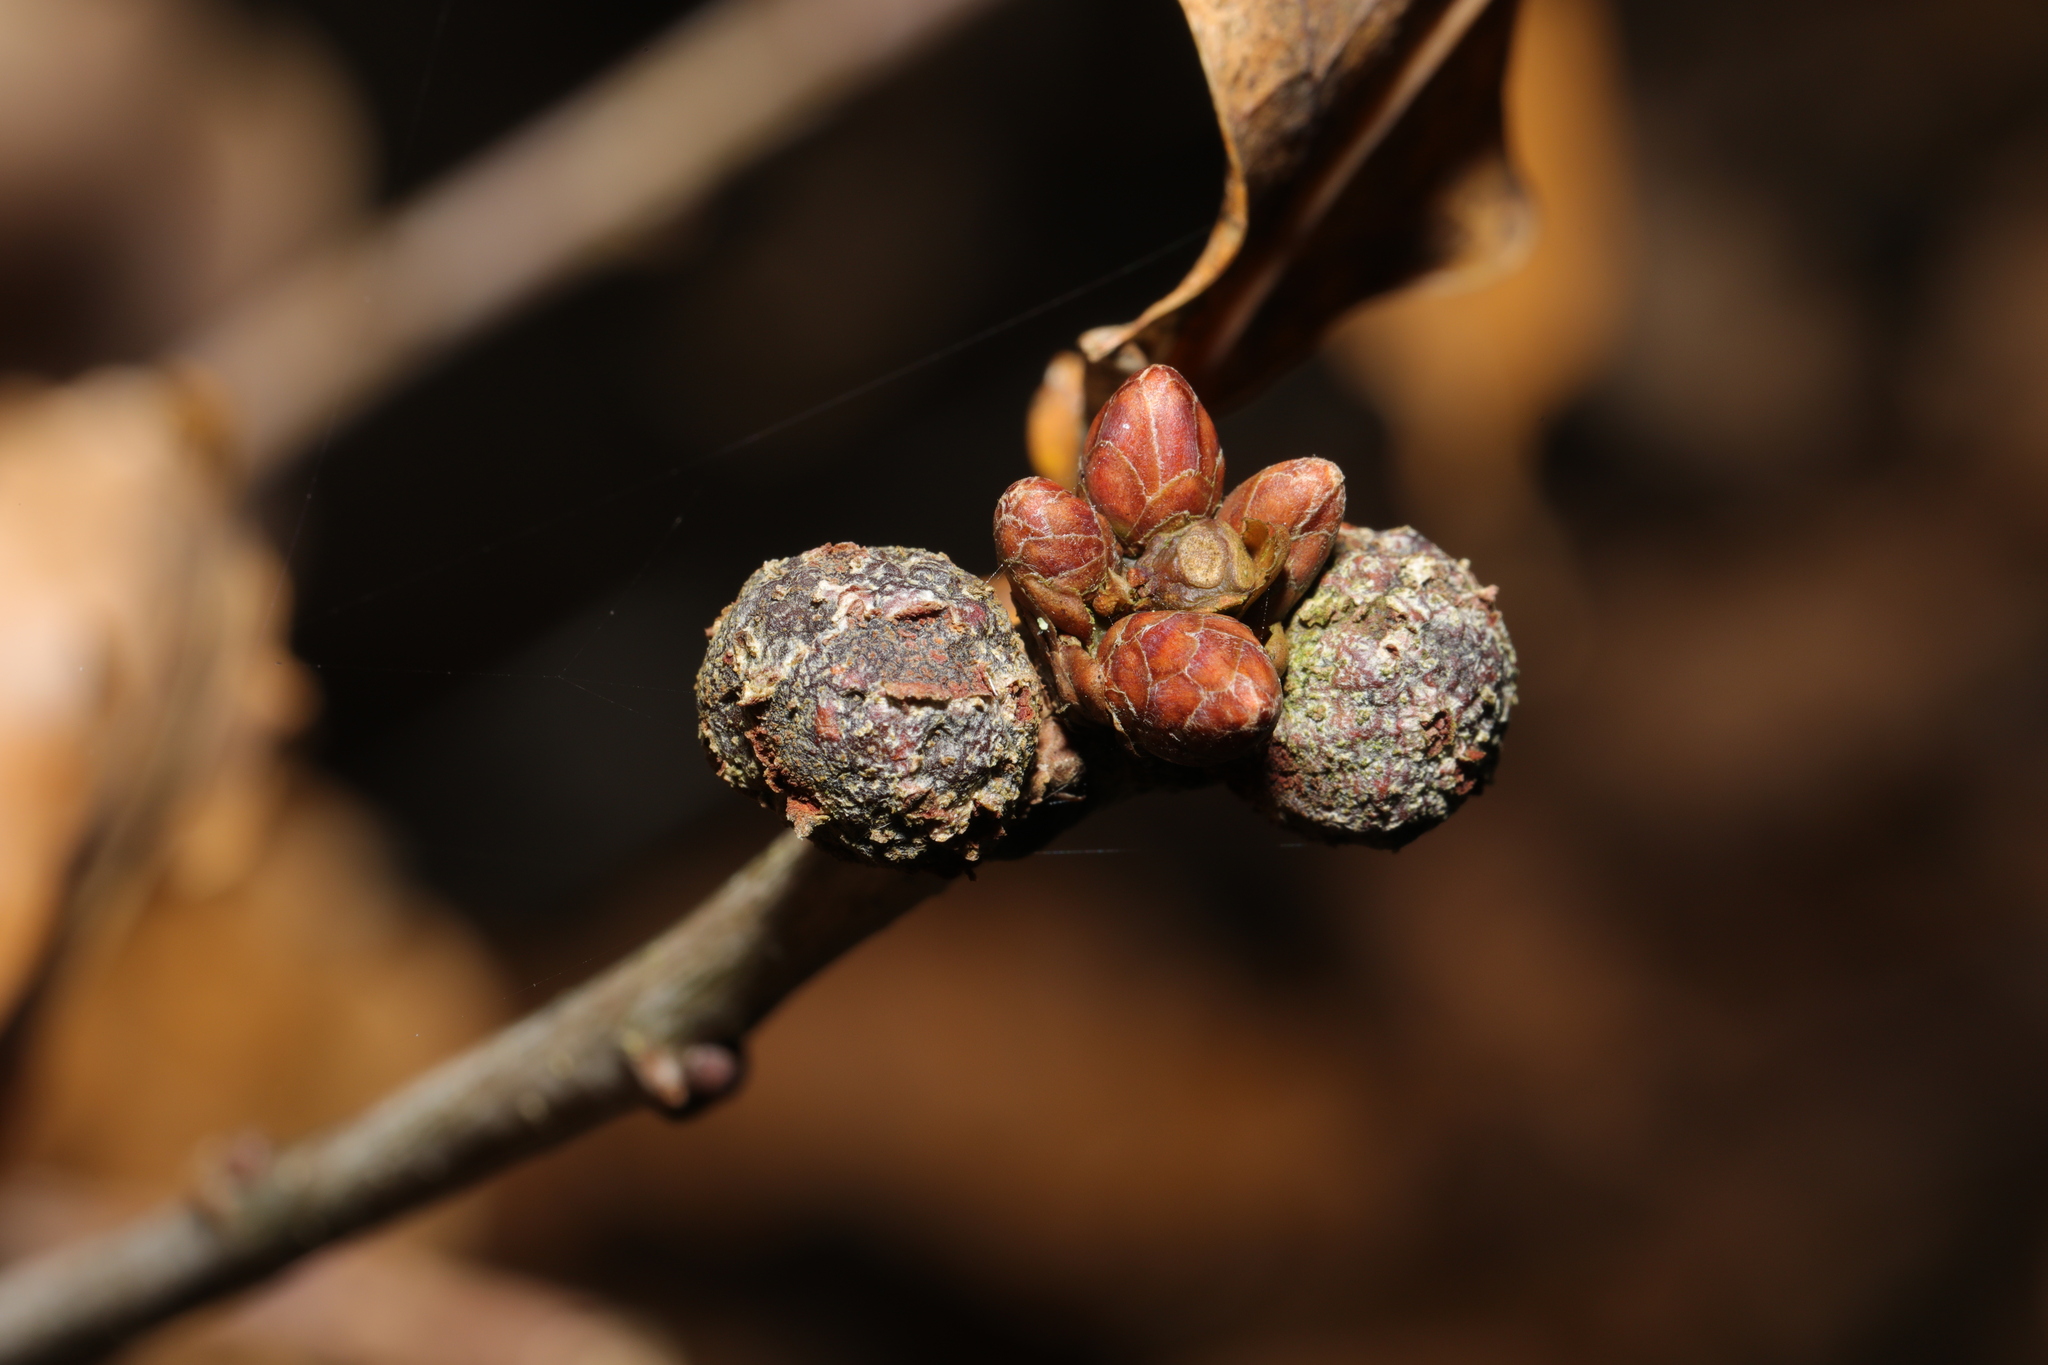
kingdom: Animalia
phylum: Arthropoda
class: Insecta
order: Hymenoptera
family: Cynipidae
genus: Andricus
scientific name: Andricus lignicolus
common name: Cola-nut gall
